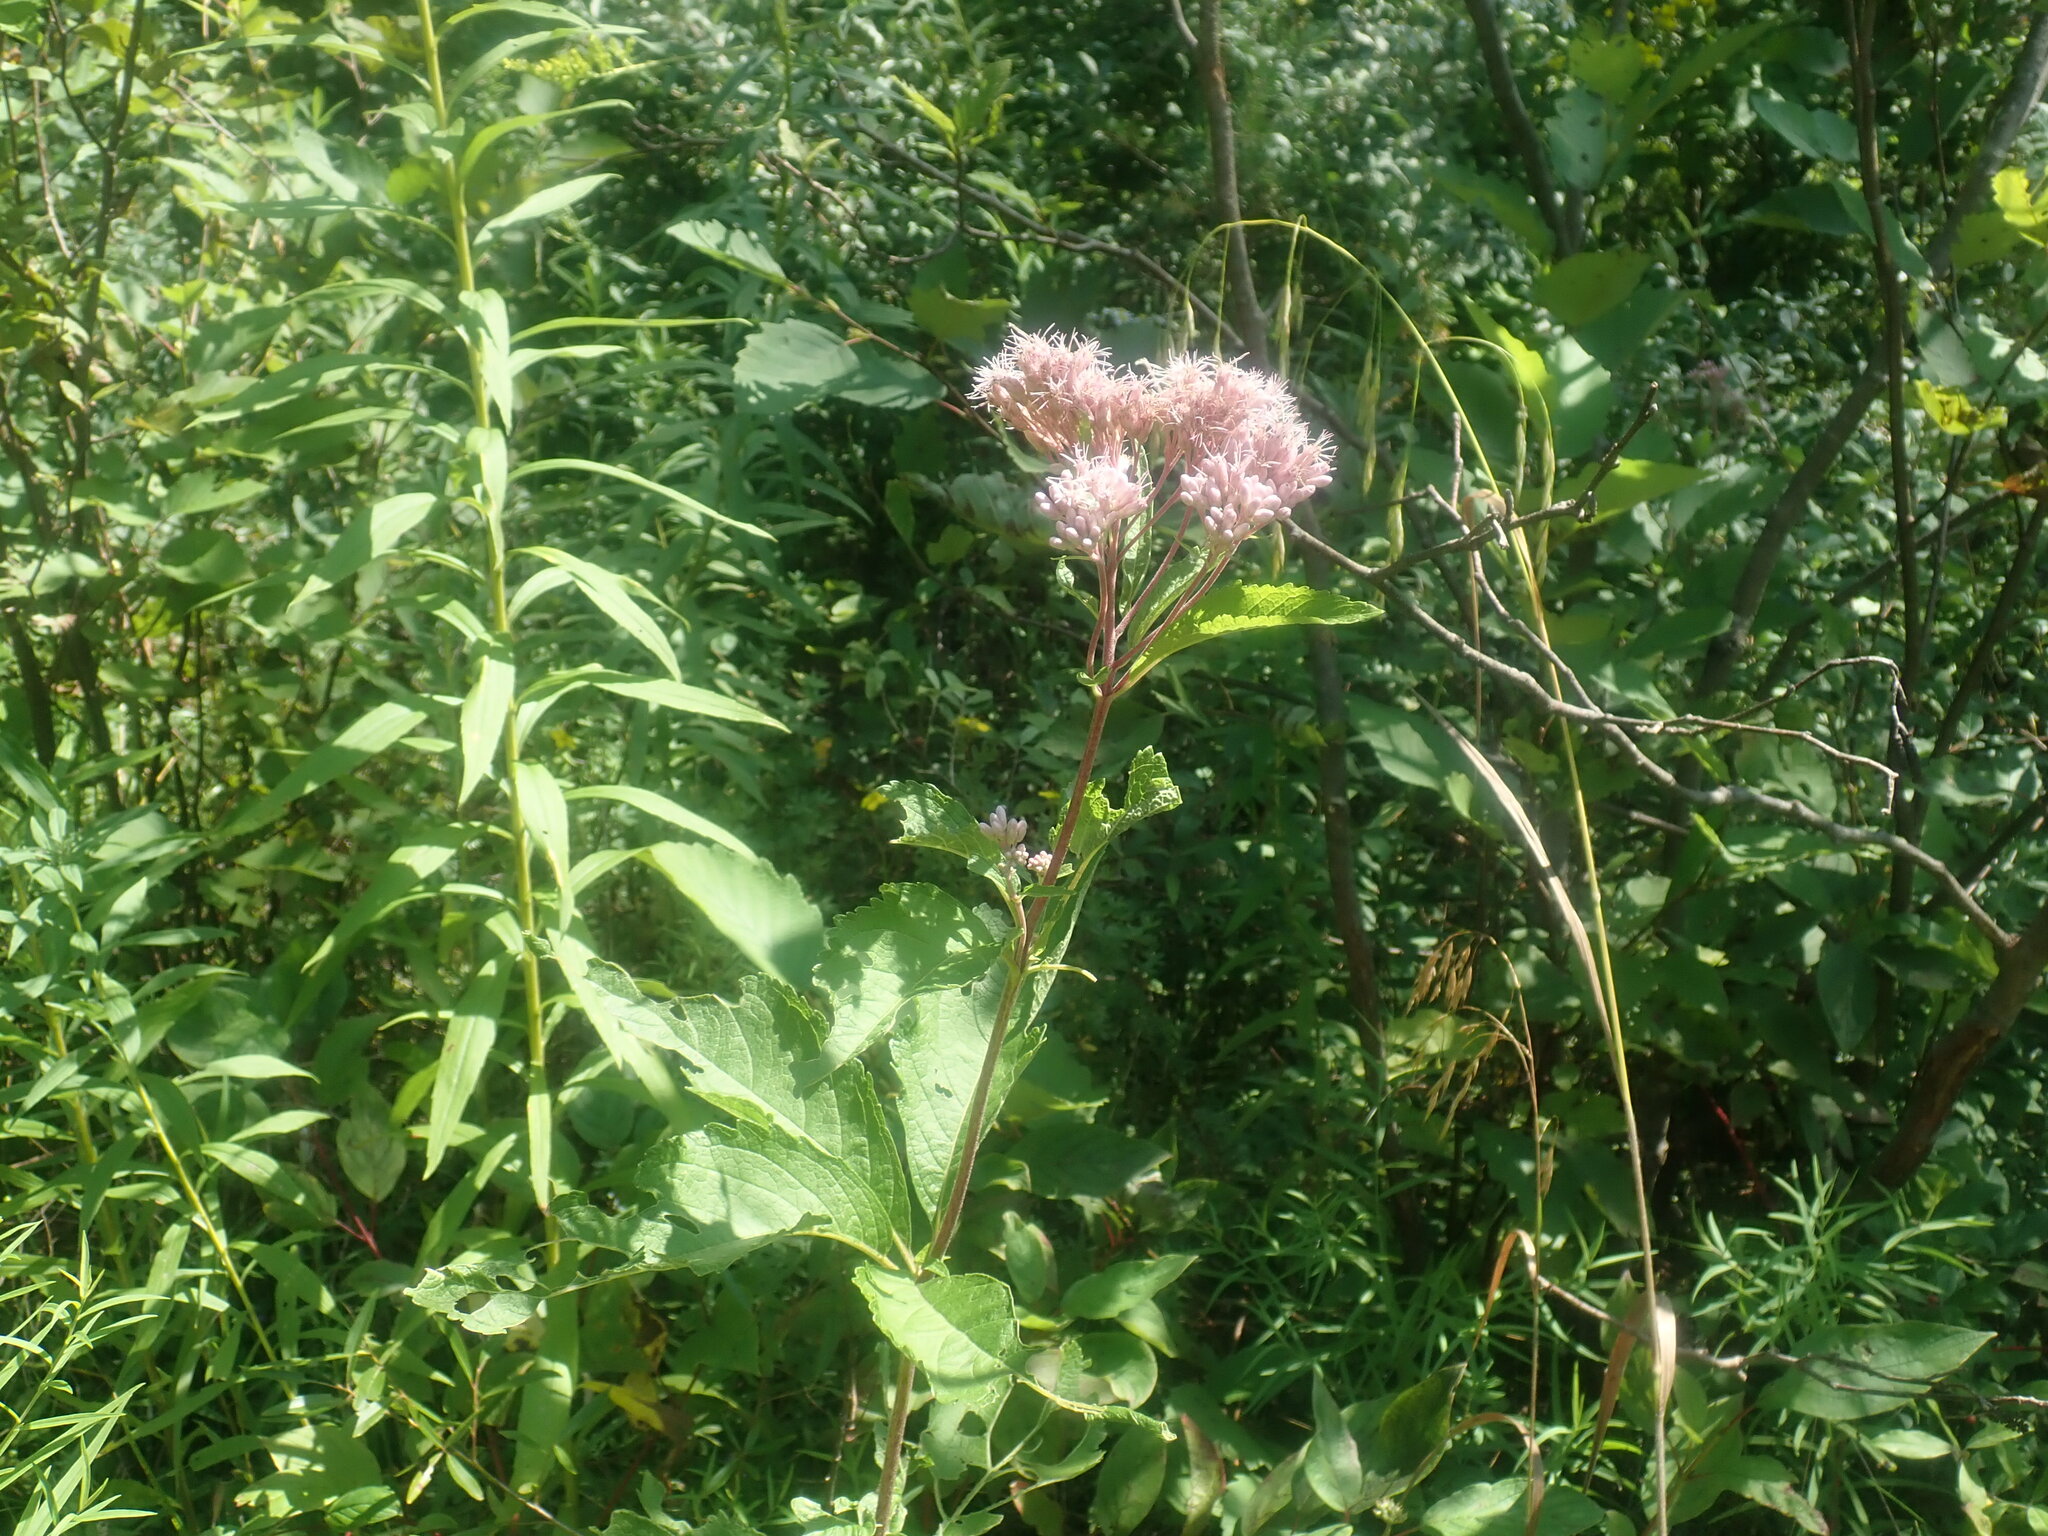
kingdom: Plantae
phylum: Tracheophyta
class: Magnoliopsida
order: Asterales
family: Asteraceae
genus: Eutrochium
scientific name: Eutrochium
